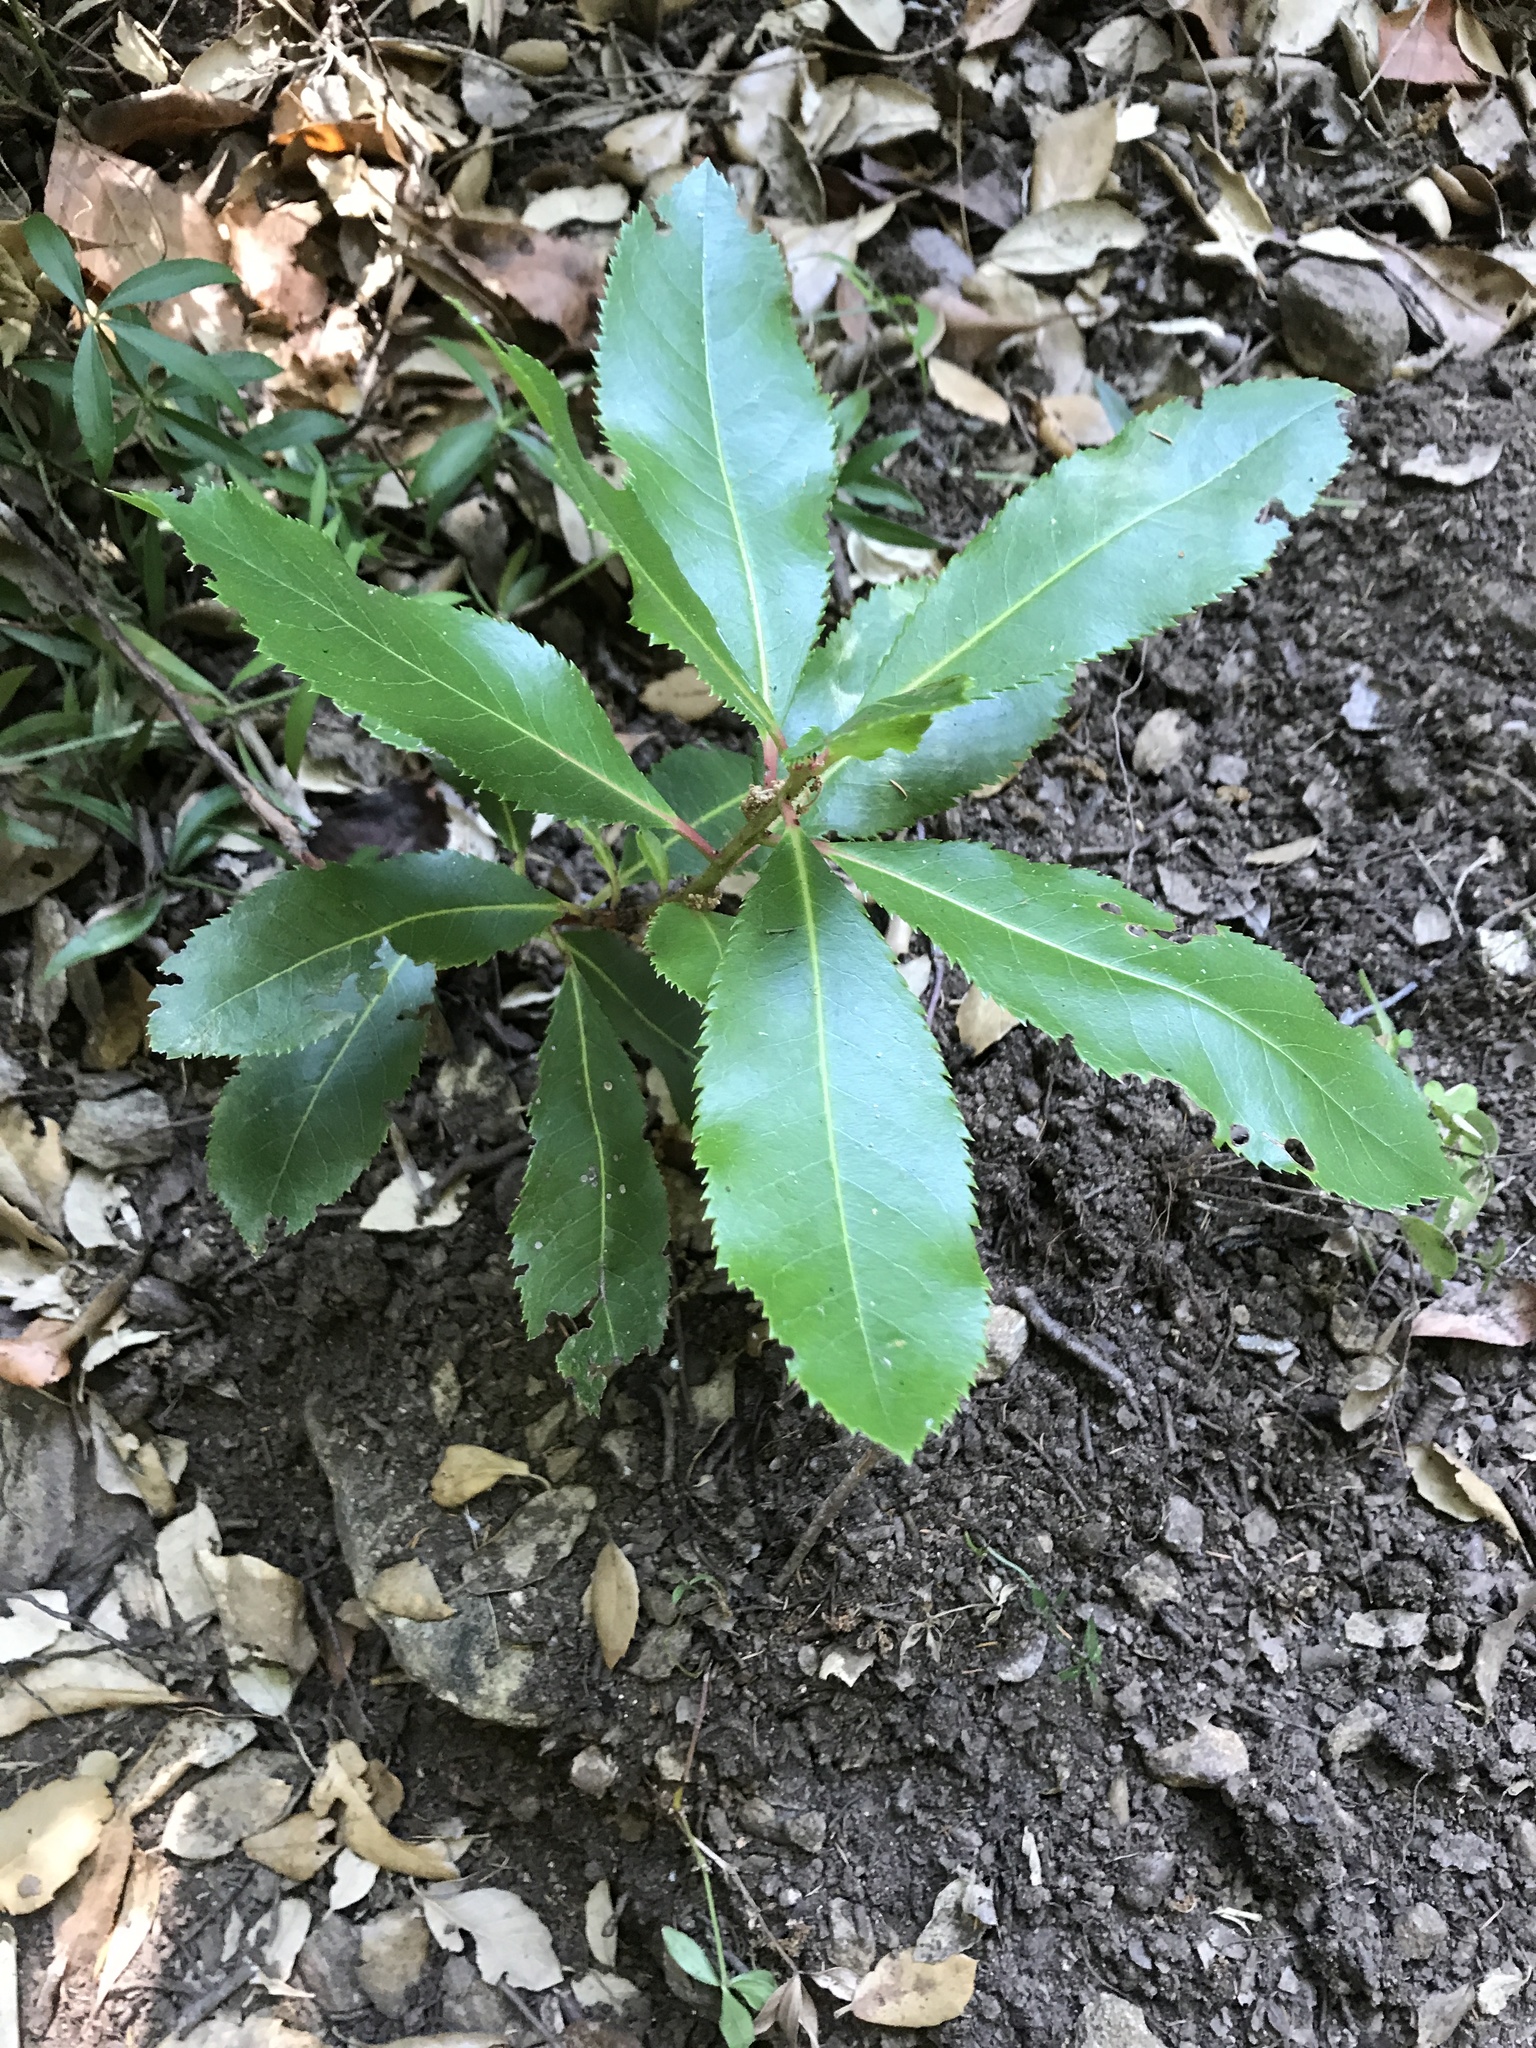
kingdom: Plantae
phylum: Tracheophyta
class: Magnoliopsida
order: Ericales
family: Ericaceae
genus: Arbutus
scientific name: Arbutus unedo
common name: Strawberry-tree
